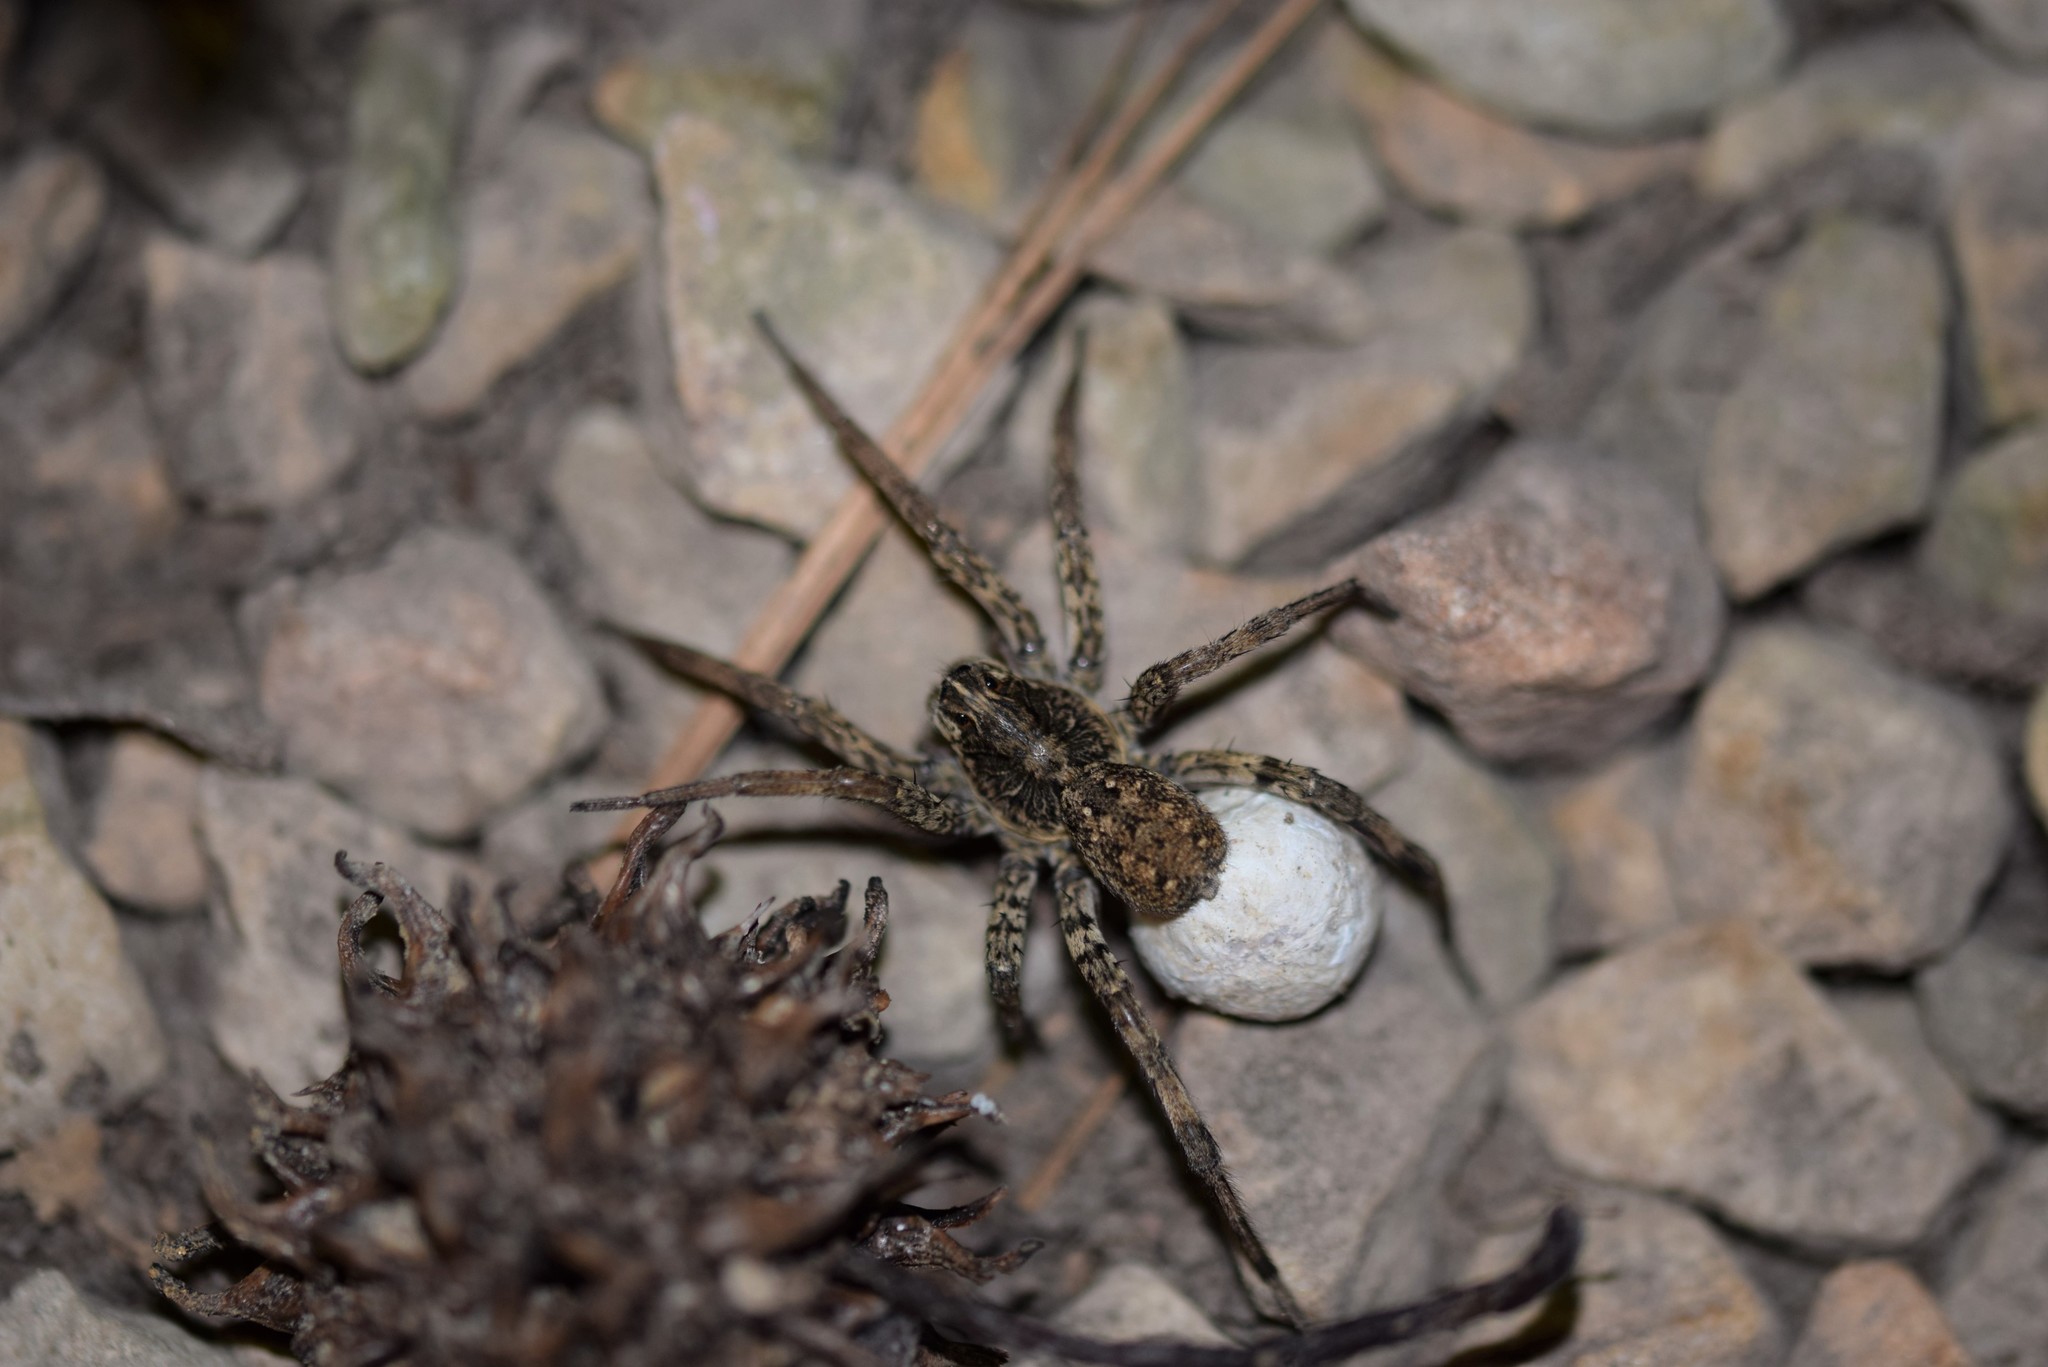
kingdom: Animalia
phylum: Arthropoda
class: Arachnida
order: Araneae
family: Lycosidae
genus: Hogna
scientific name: Hogna antelucana
